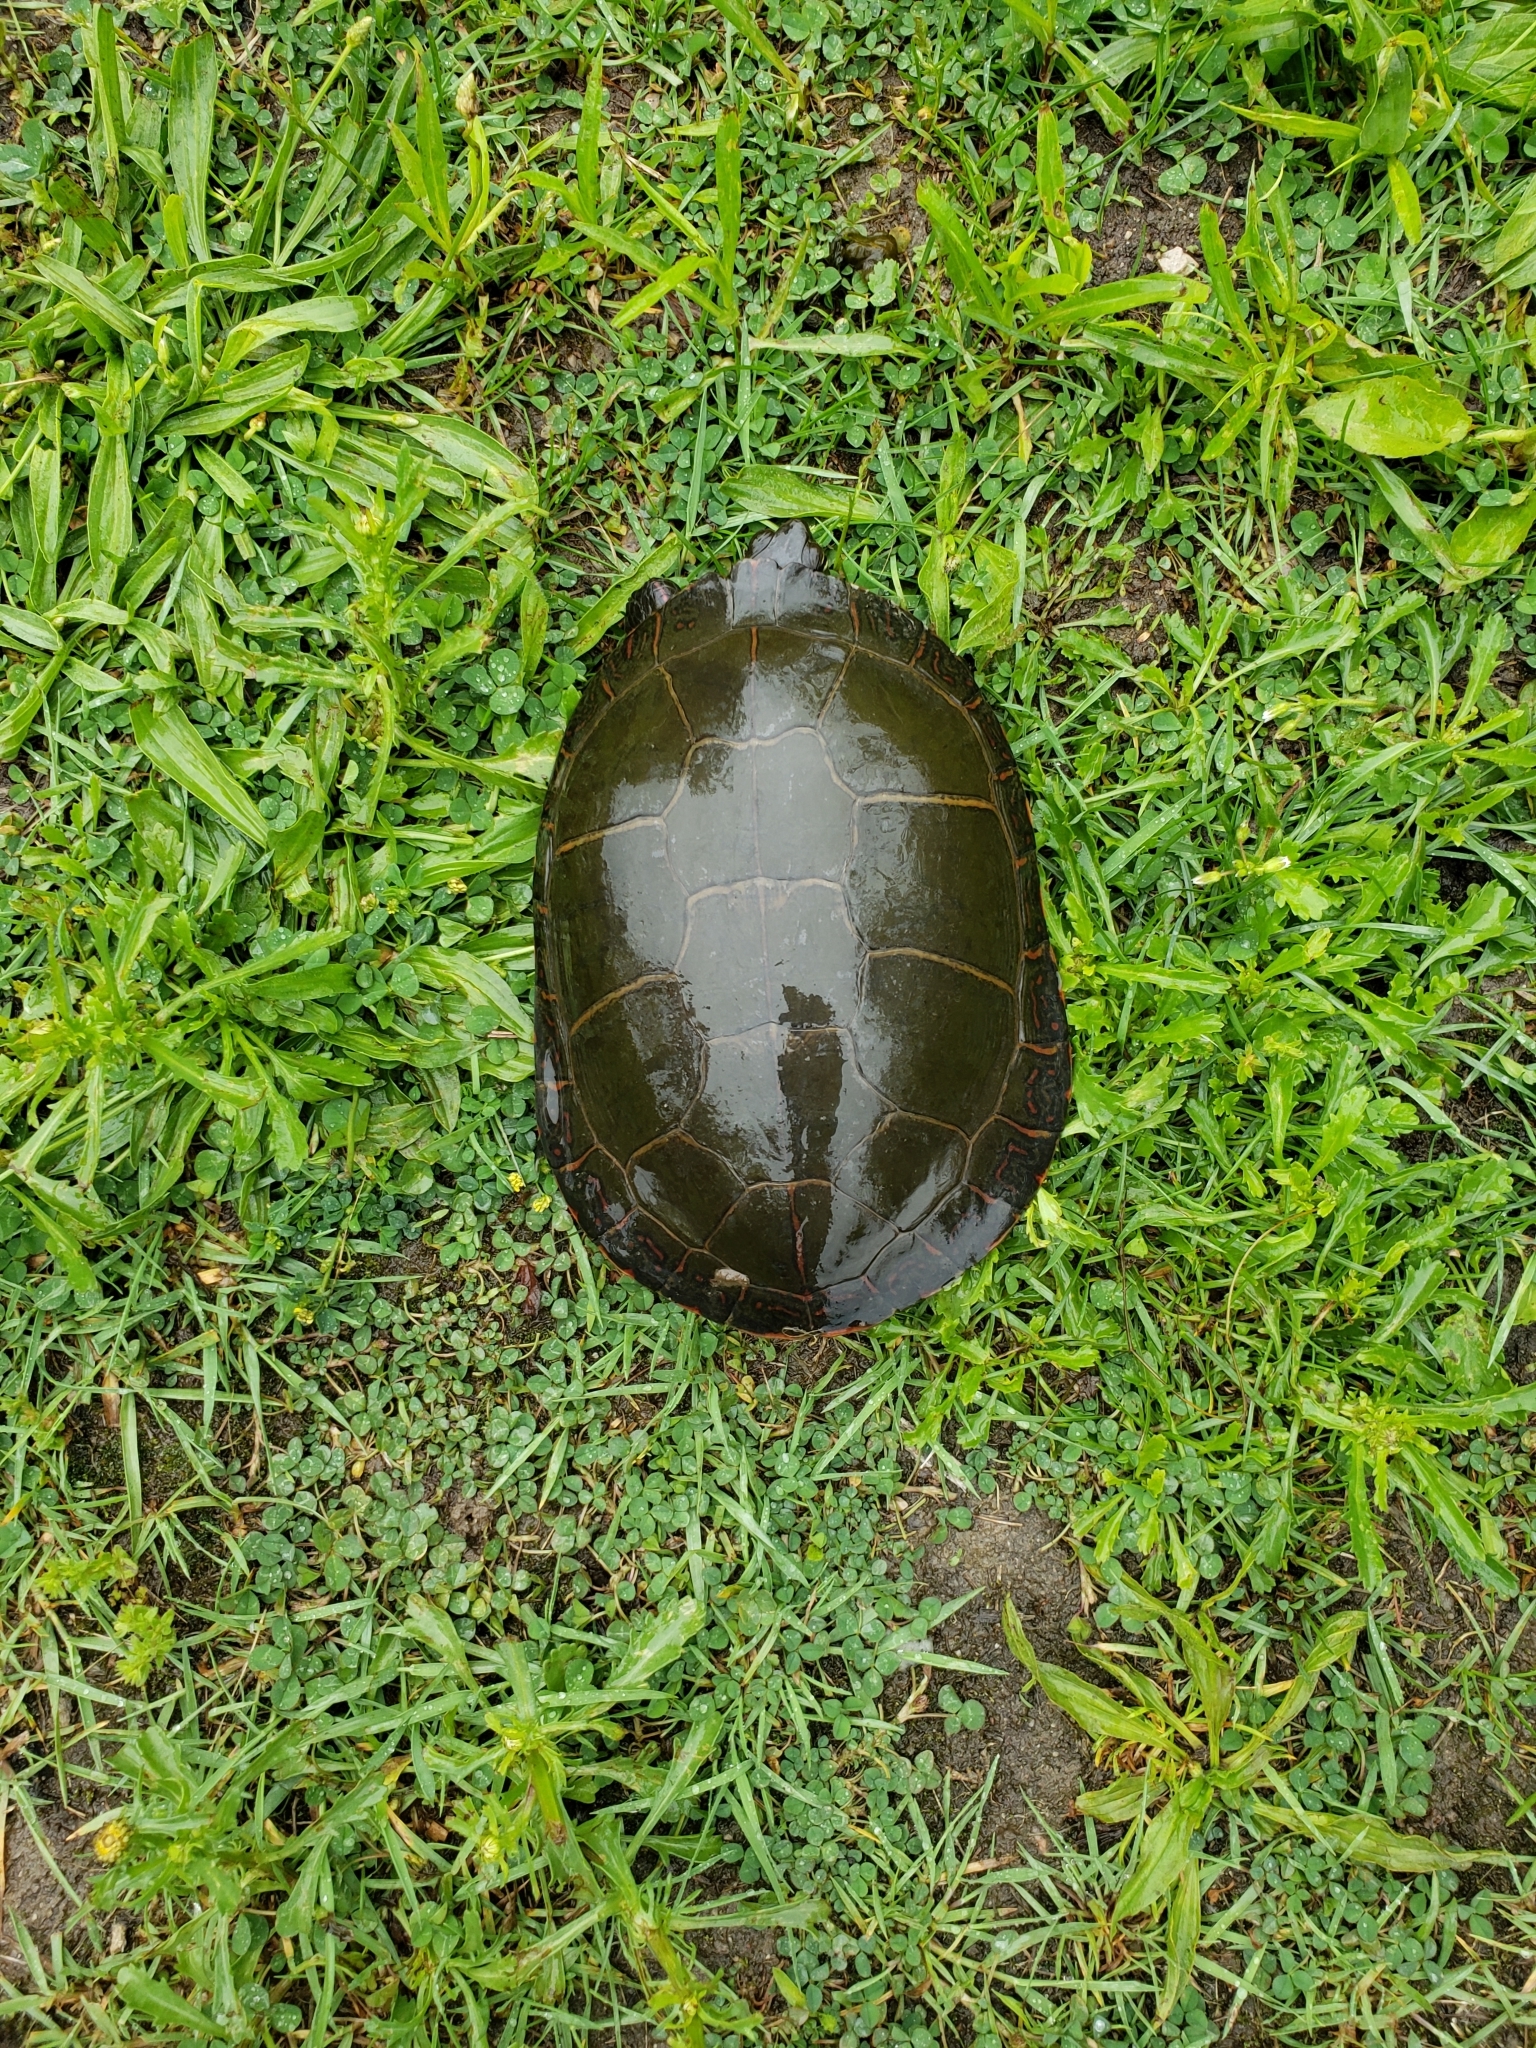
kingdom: Animalia
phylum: Chordata
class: Testudines
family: Emydidae
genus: Chrysemys
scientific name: Chrysemys picta
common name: Painted turtle
